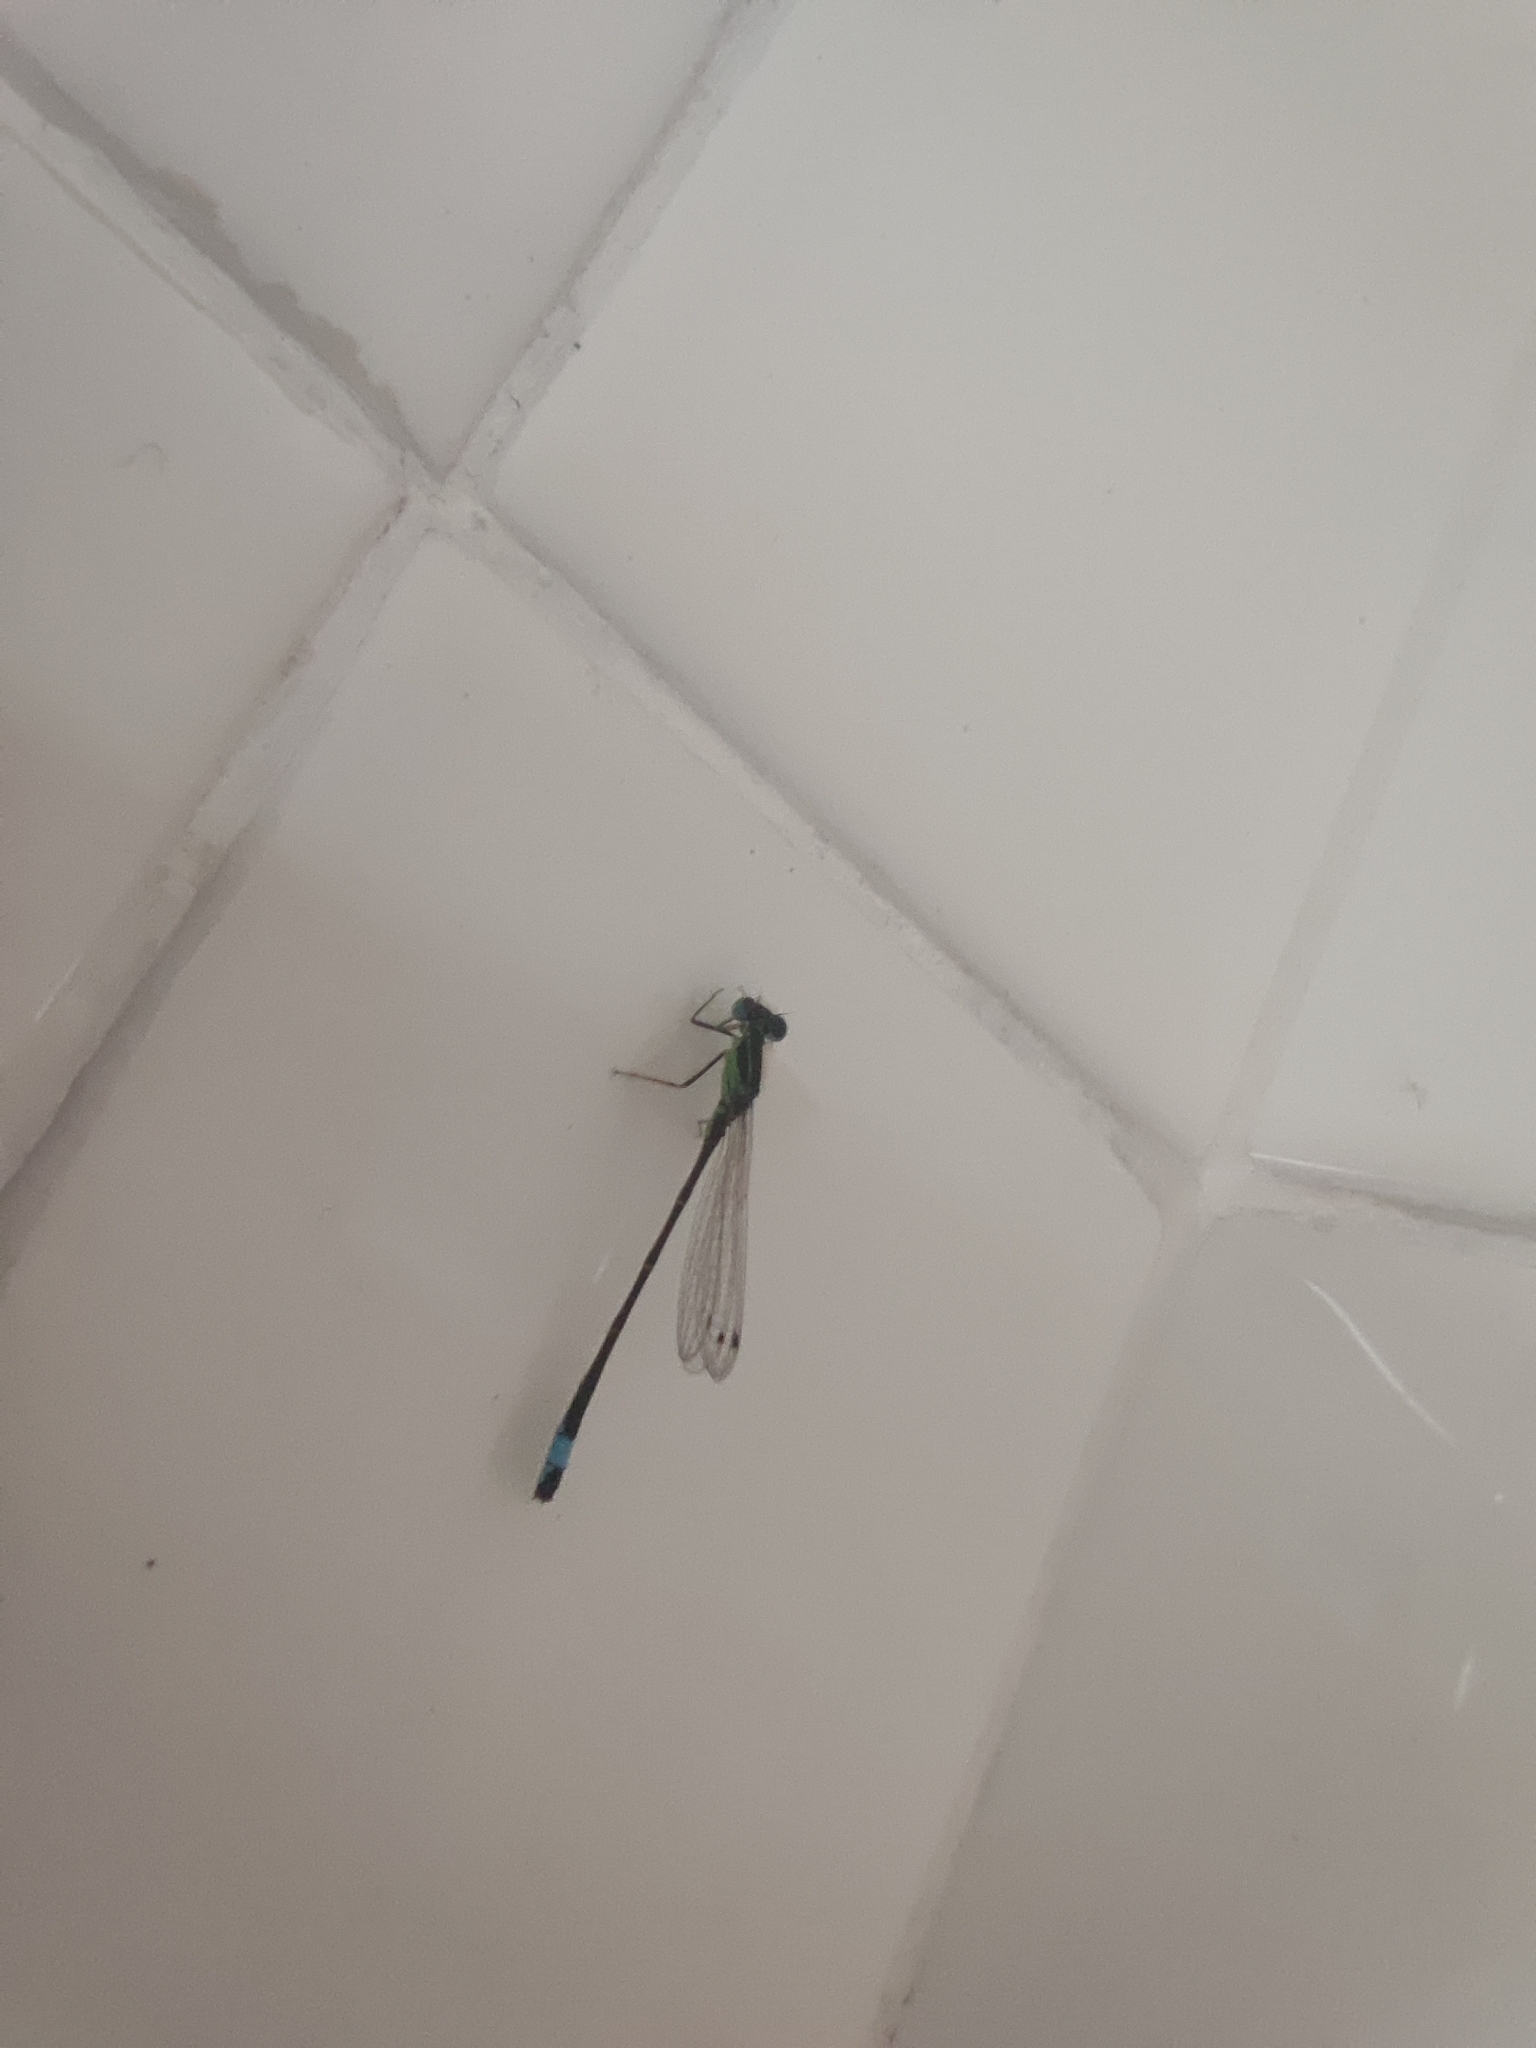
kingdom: Animalia
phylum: Arthropoda
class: Insecta
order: Odonata
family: Coenagrionidae
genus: Ischnura
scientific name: Ischnura graellsii
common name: Iberian bluetail
